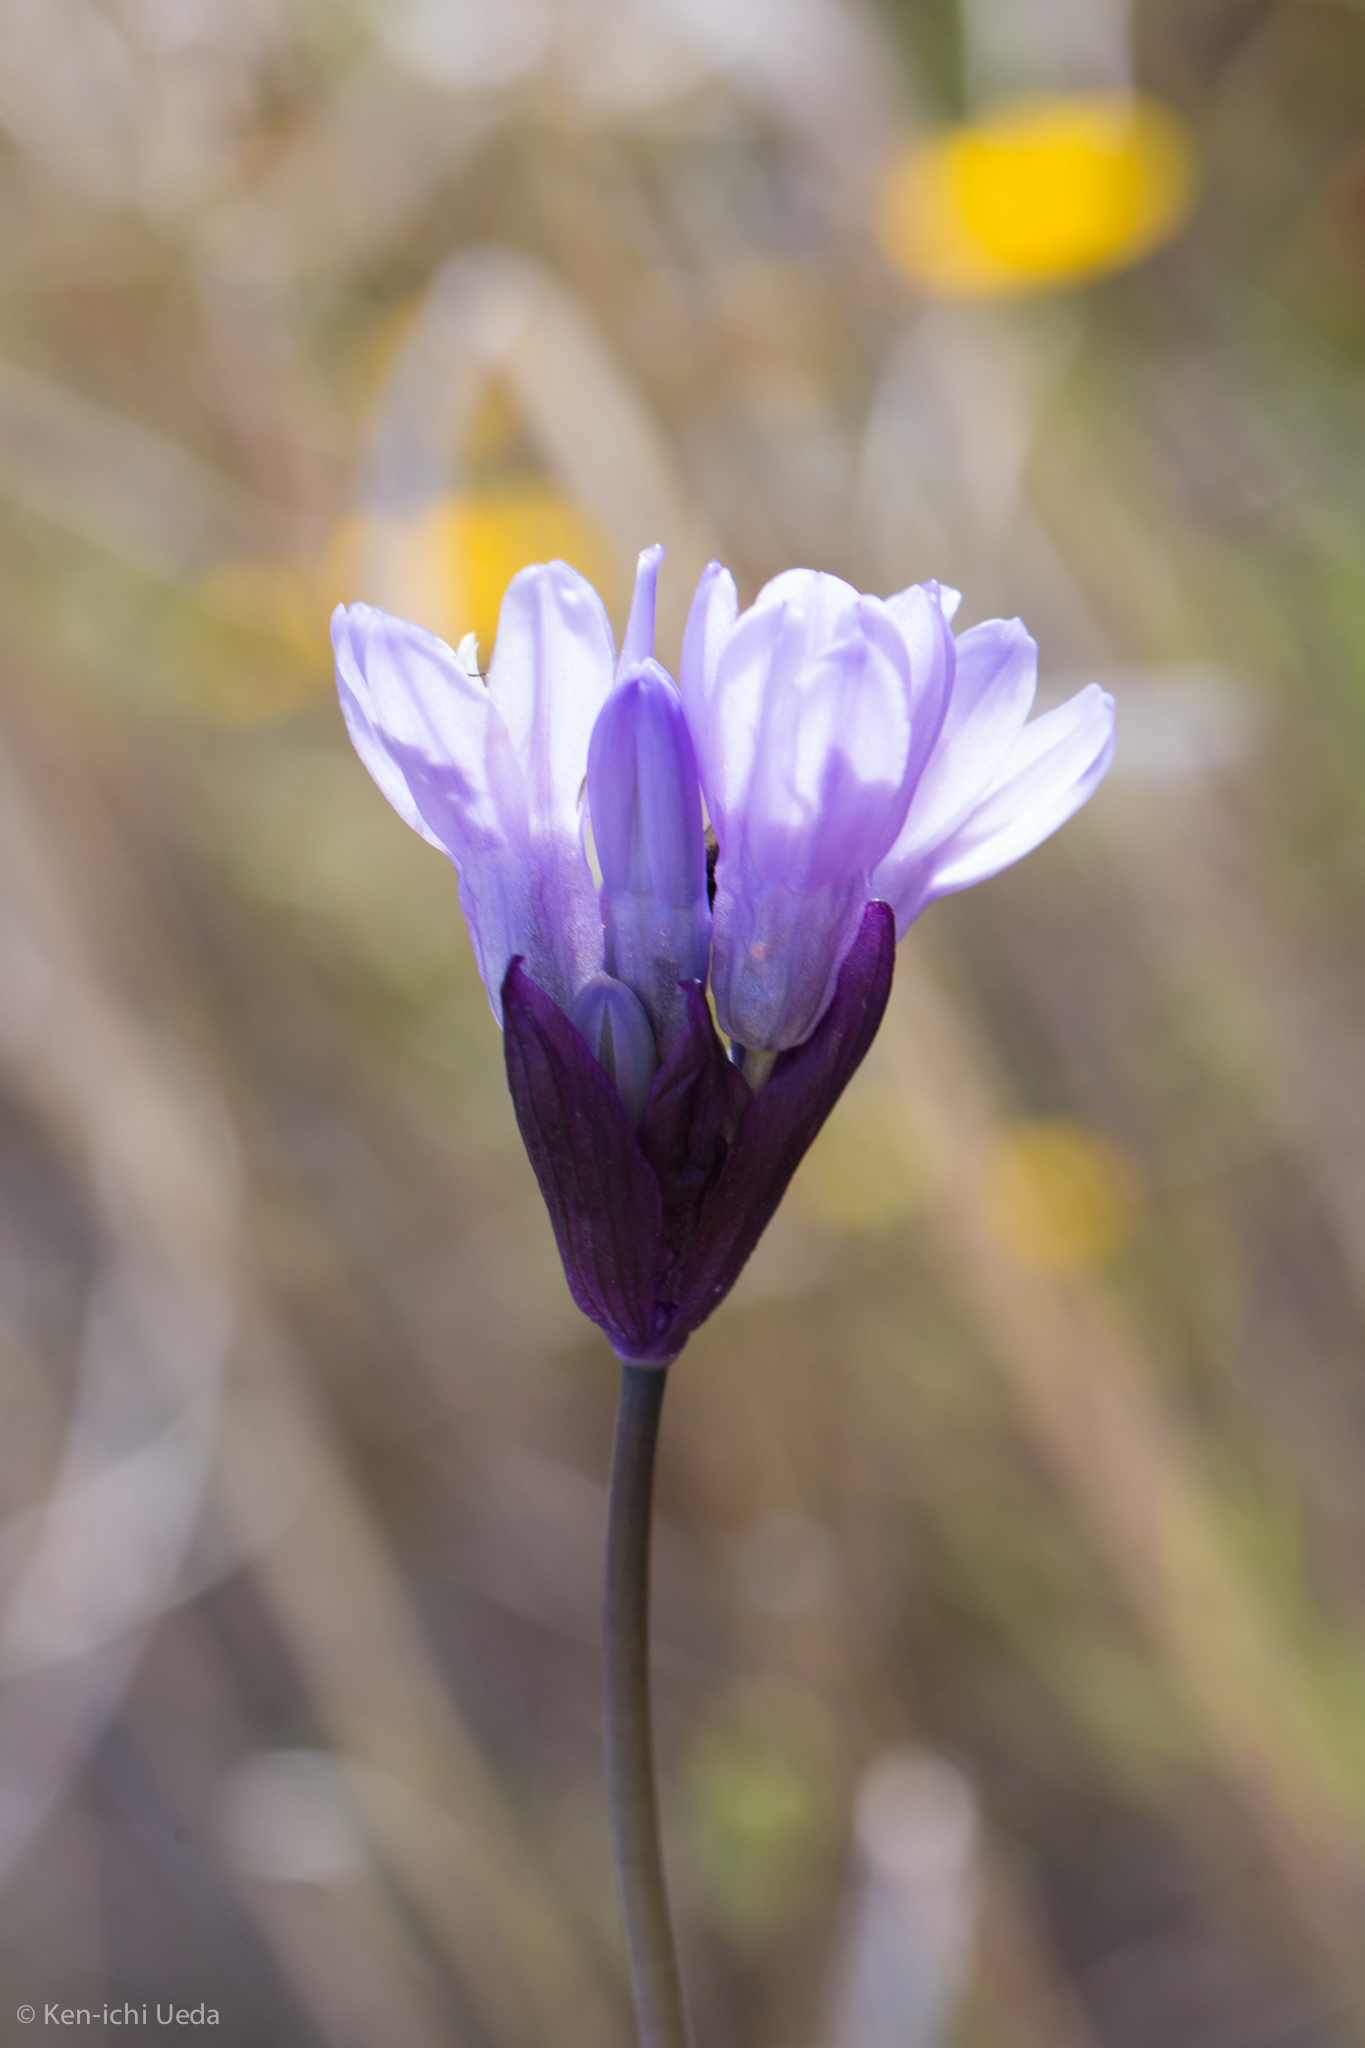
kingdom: Plantae
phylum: Tracheophyta
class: Liliopsida
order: Asparagales
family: Asparagaceae
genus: Dipterostemon
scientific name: Dipterostemon capitatus
